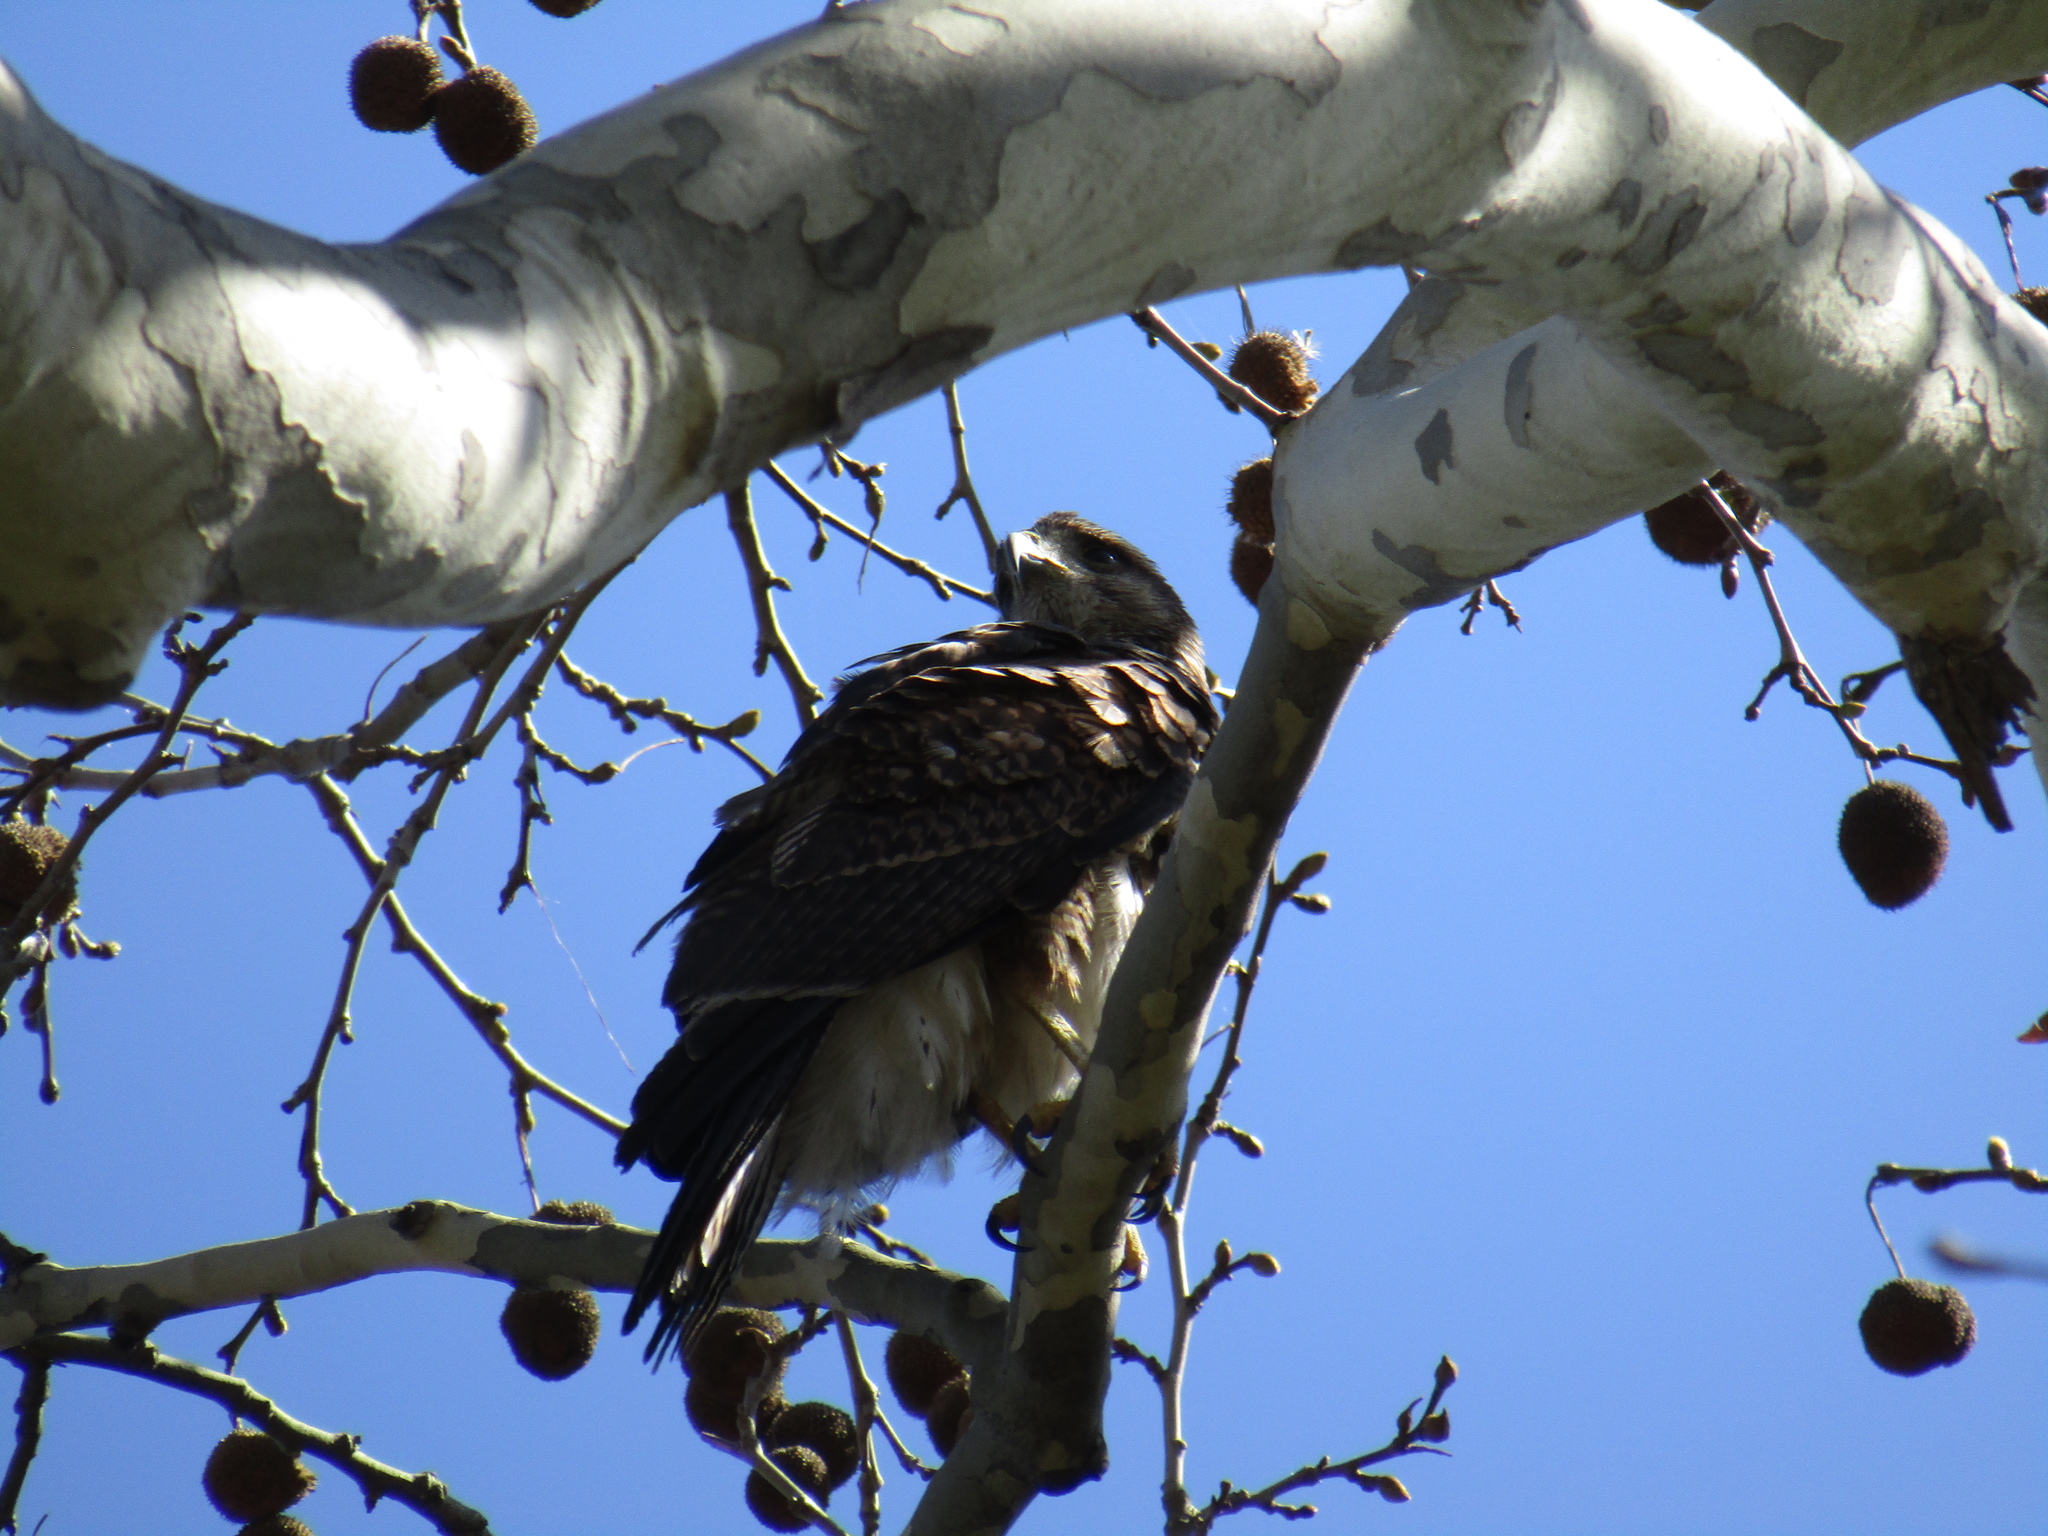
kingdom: Animalia
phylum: Chordata
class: Aves
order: Accipitriformes
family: Accipitridae
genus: Parabuteo
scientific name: Parabuteo unicinctus
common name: Harris's hawk
